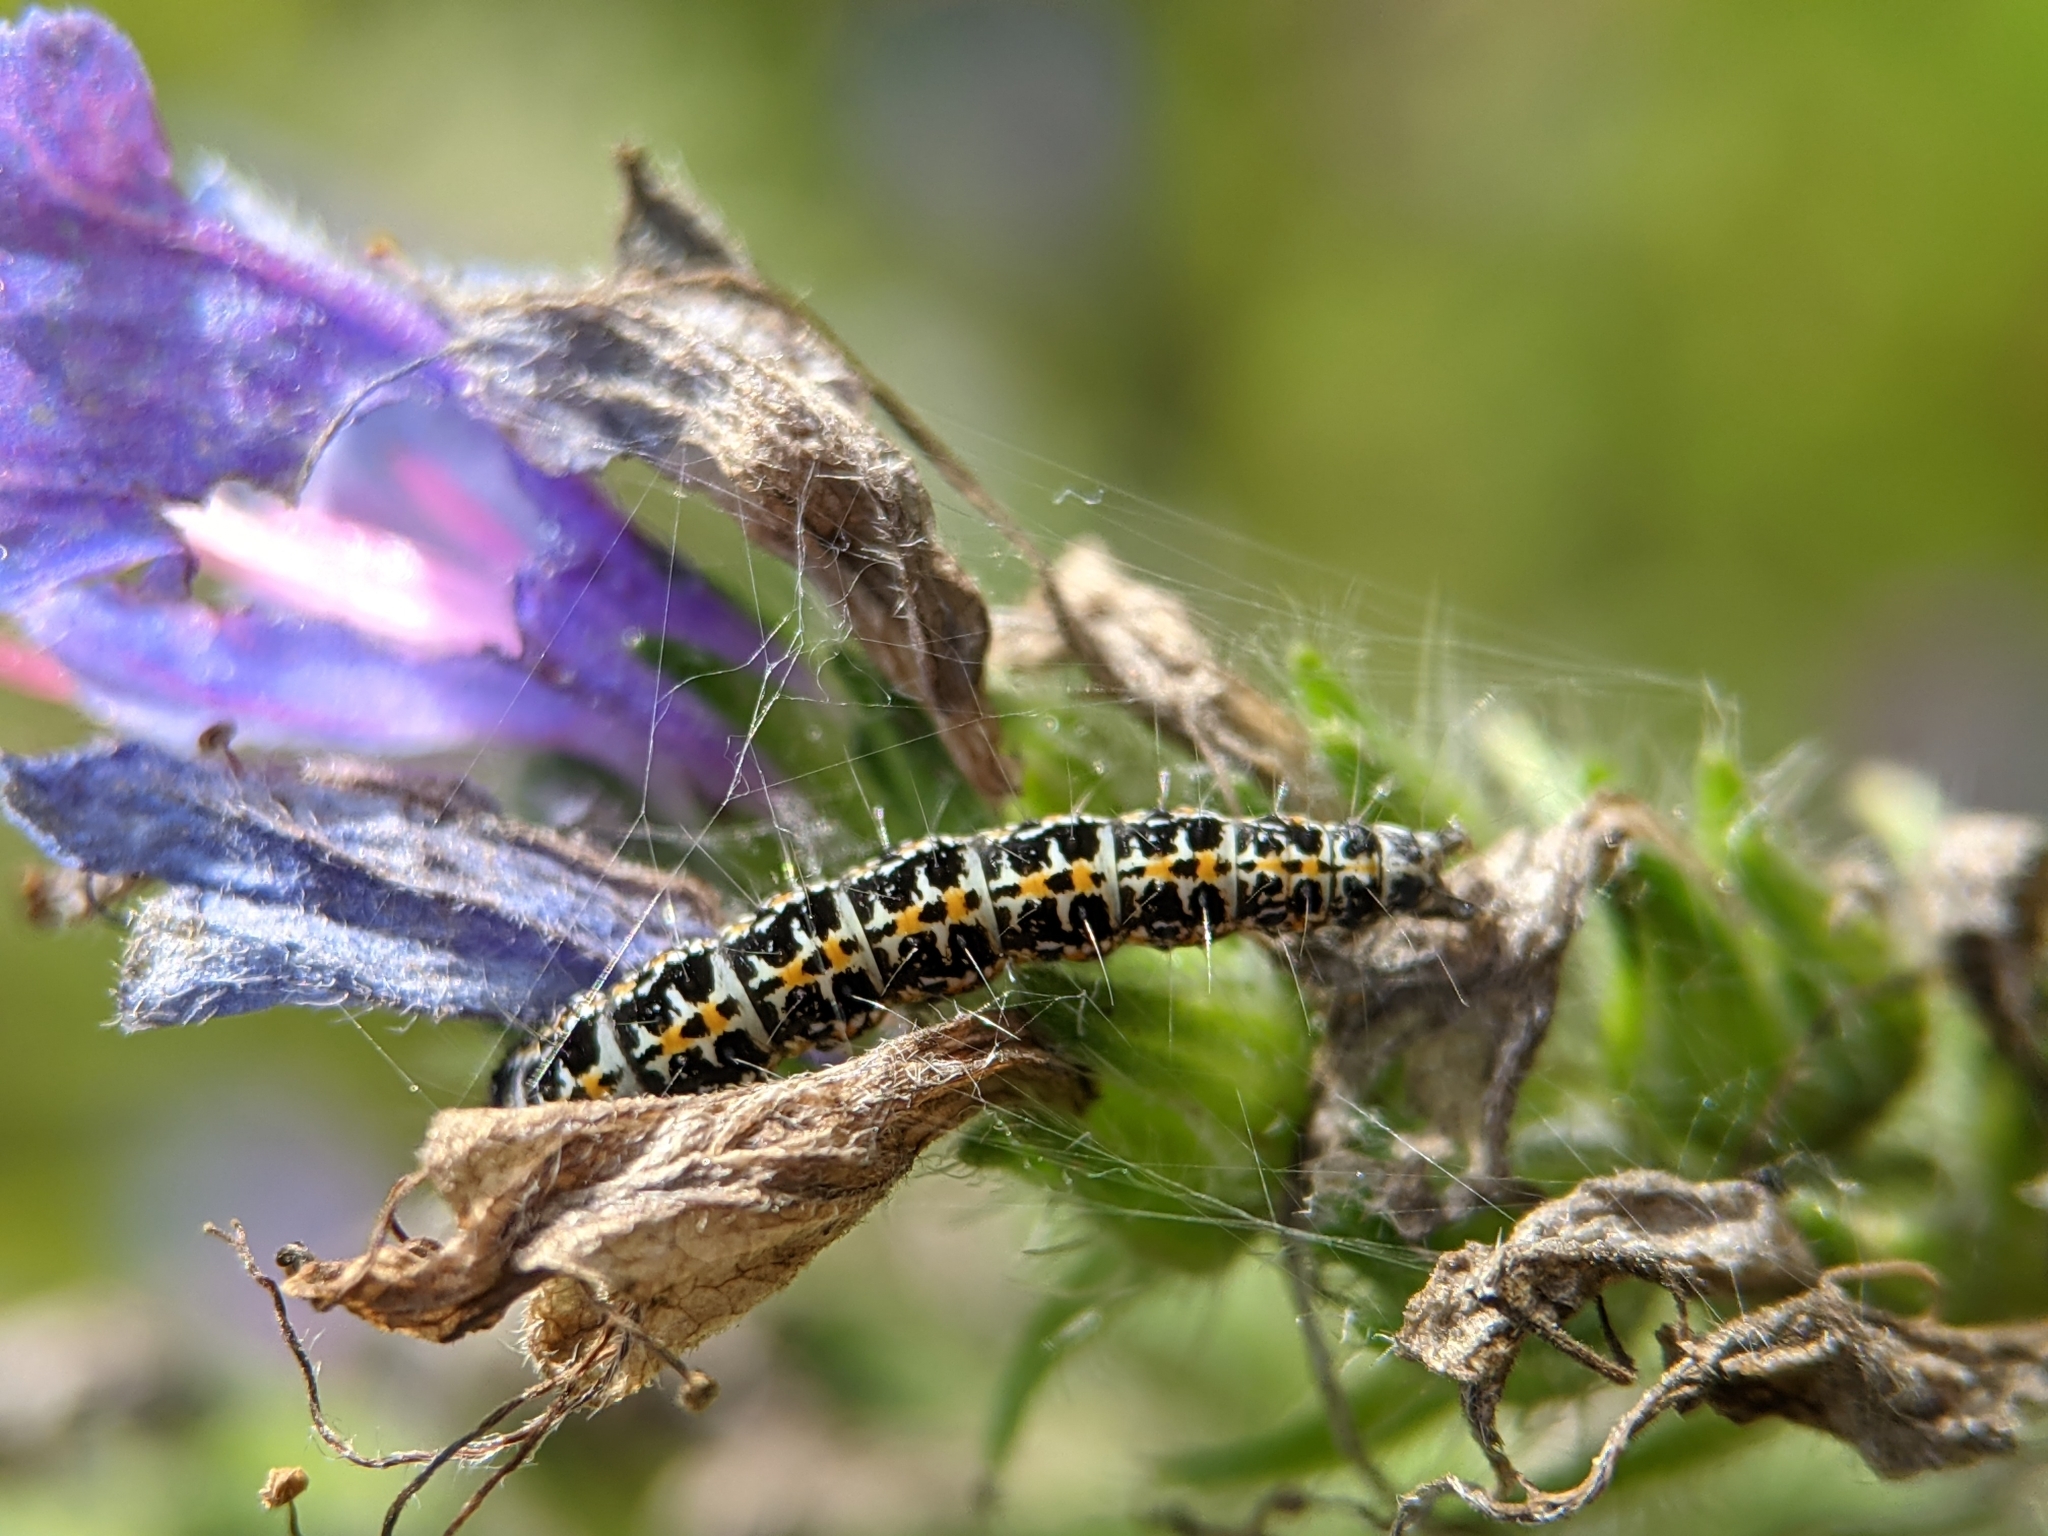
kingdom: Animalia
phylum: Arthropoda
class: Insecta
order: Lepidoptera
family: Ethmiidae
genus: Ethmia
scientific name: Ethmia bipunctella
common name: Bordered ermel
